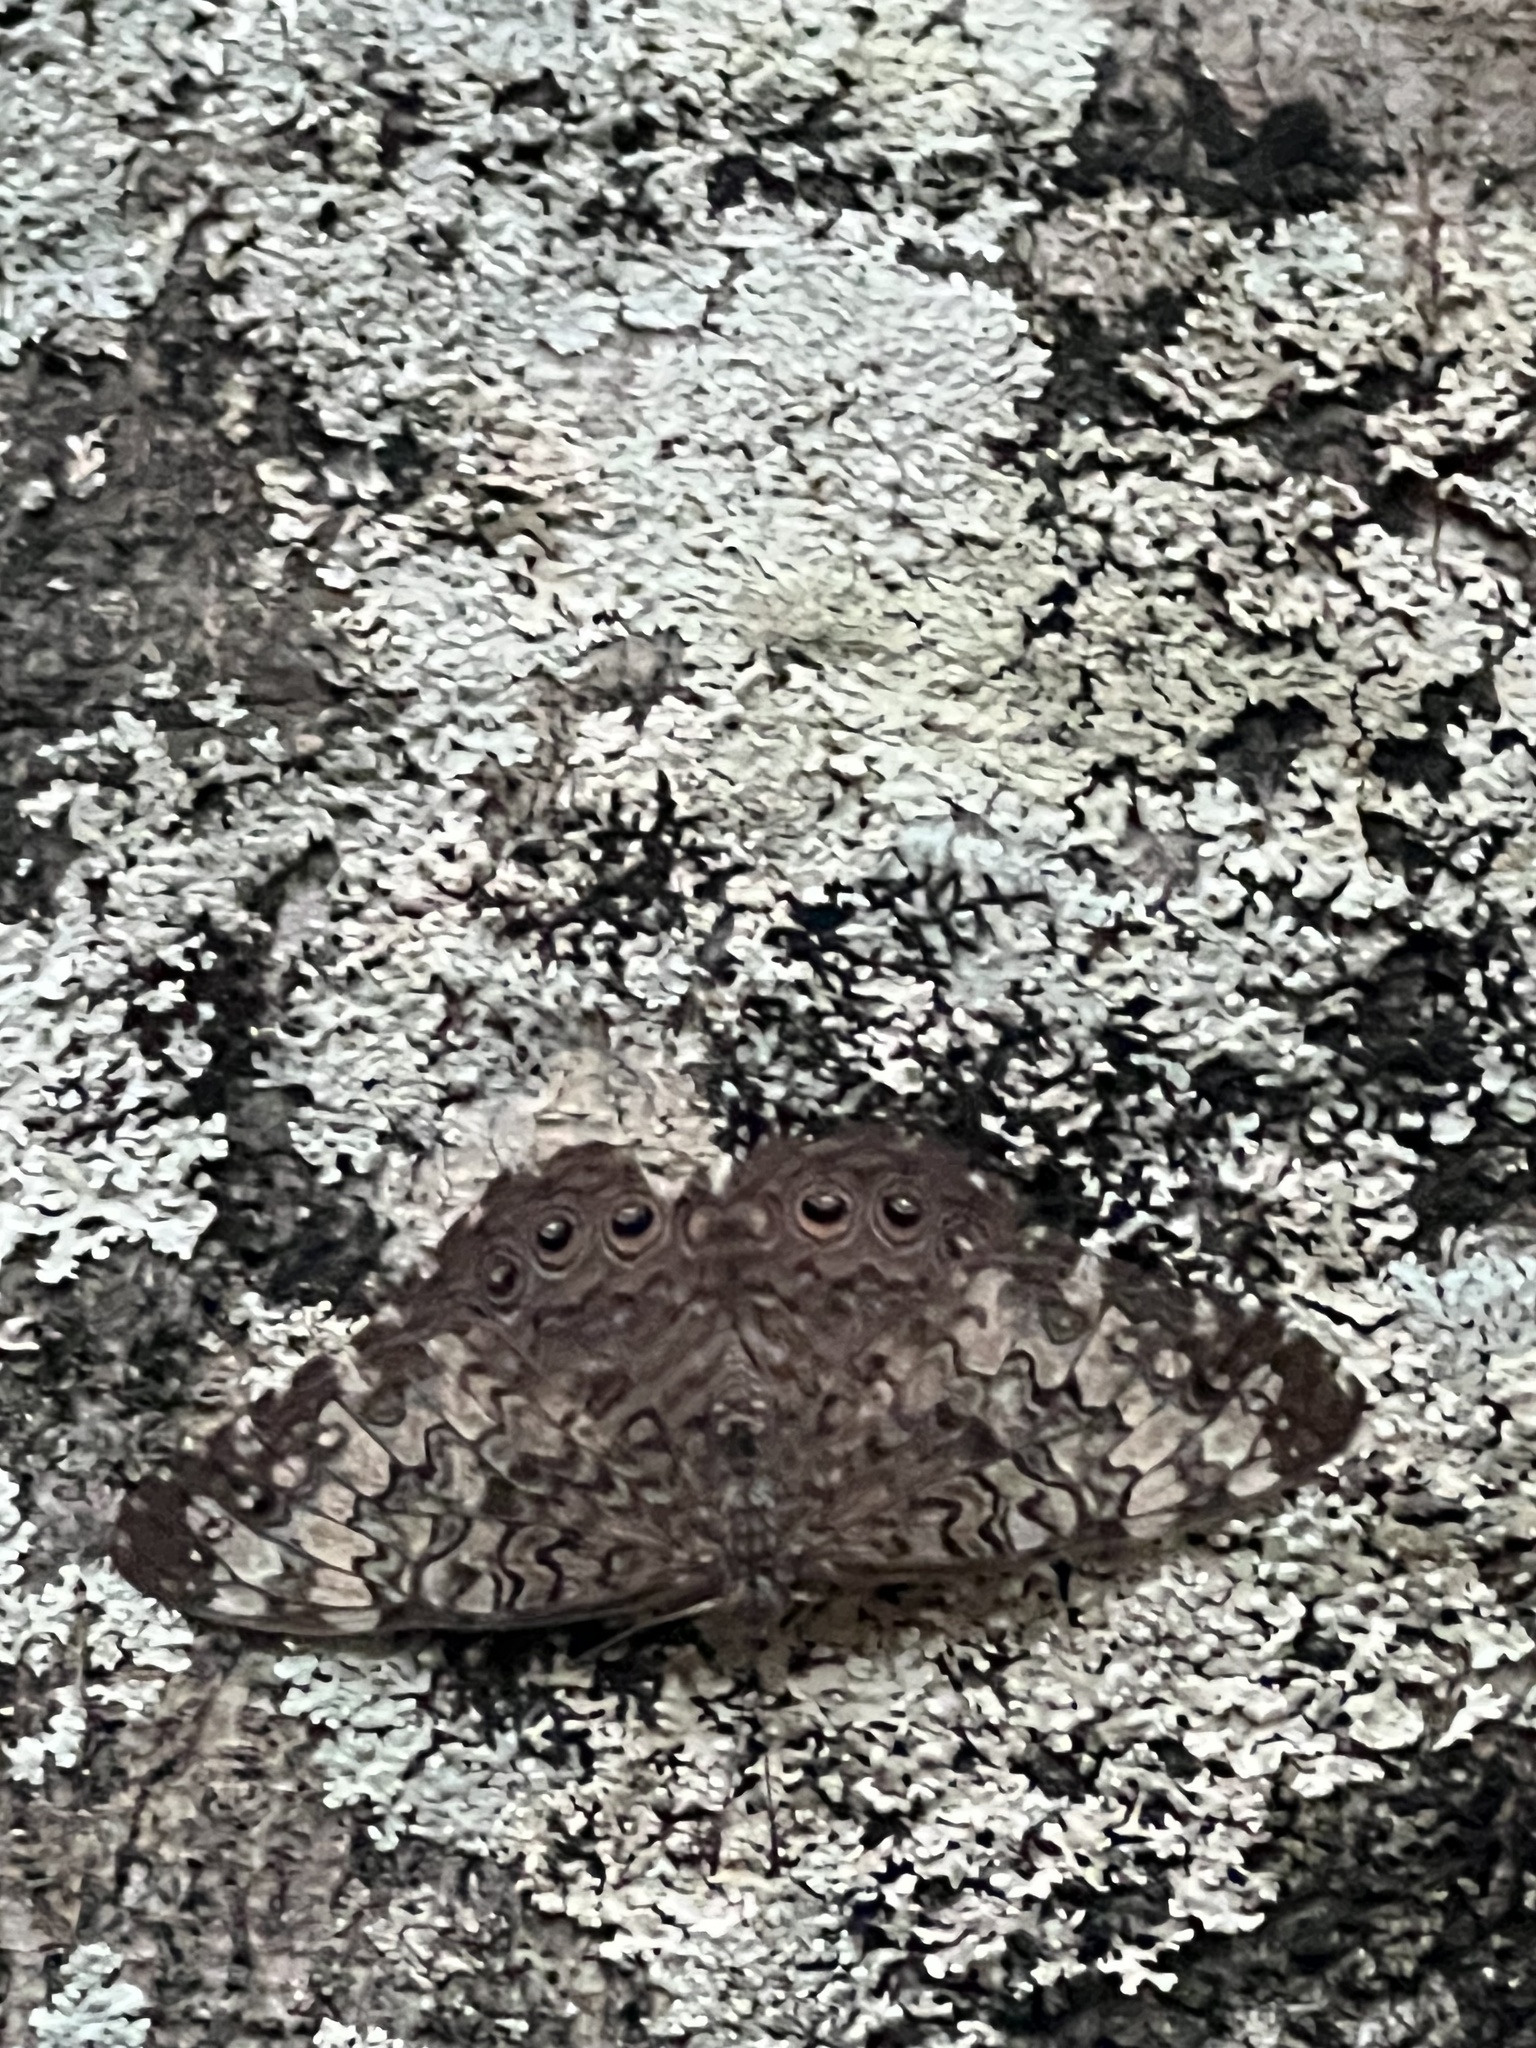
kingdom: Animalia
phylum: Arthropoda
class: Insecta
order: Lepidoptera
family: Nymphalidae
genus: Hamadryas
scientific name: Hamadryas februa
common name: Gray cracker
